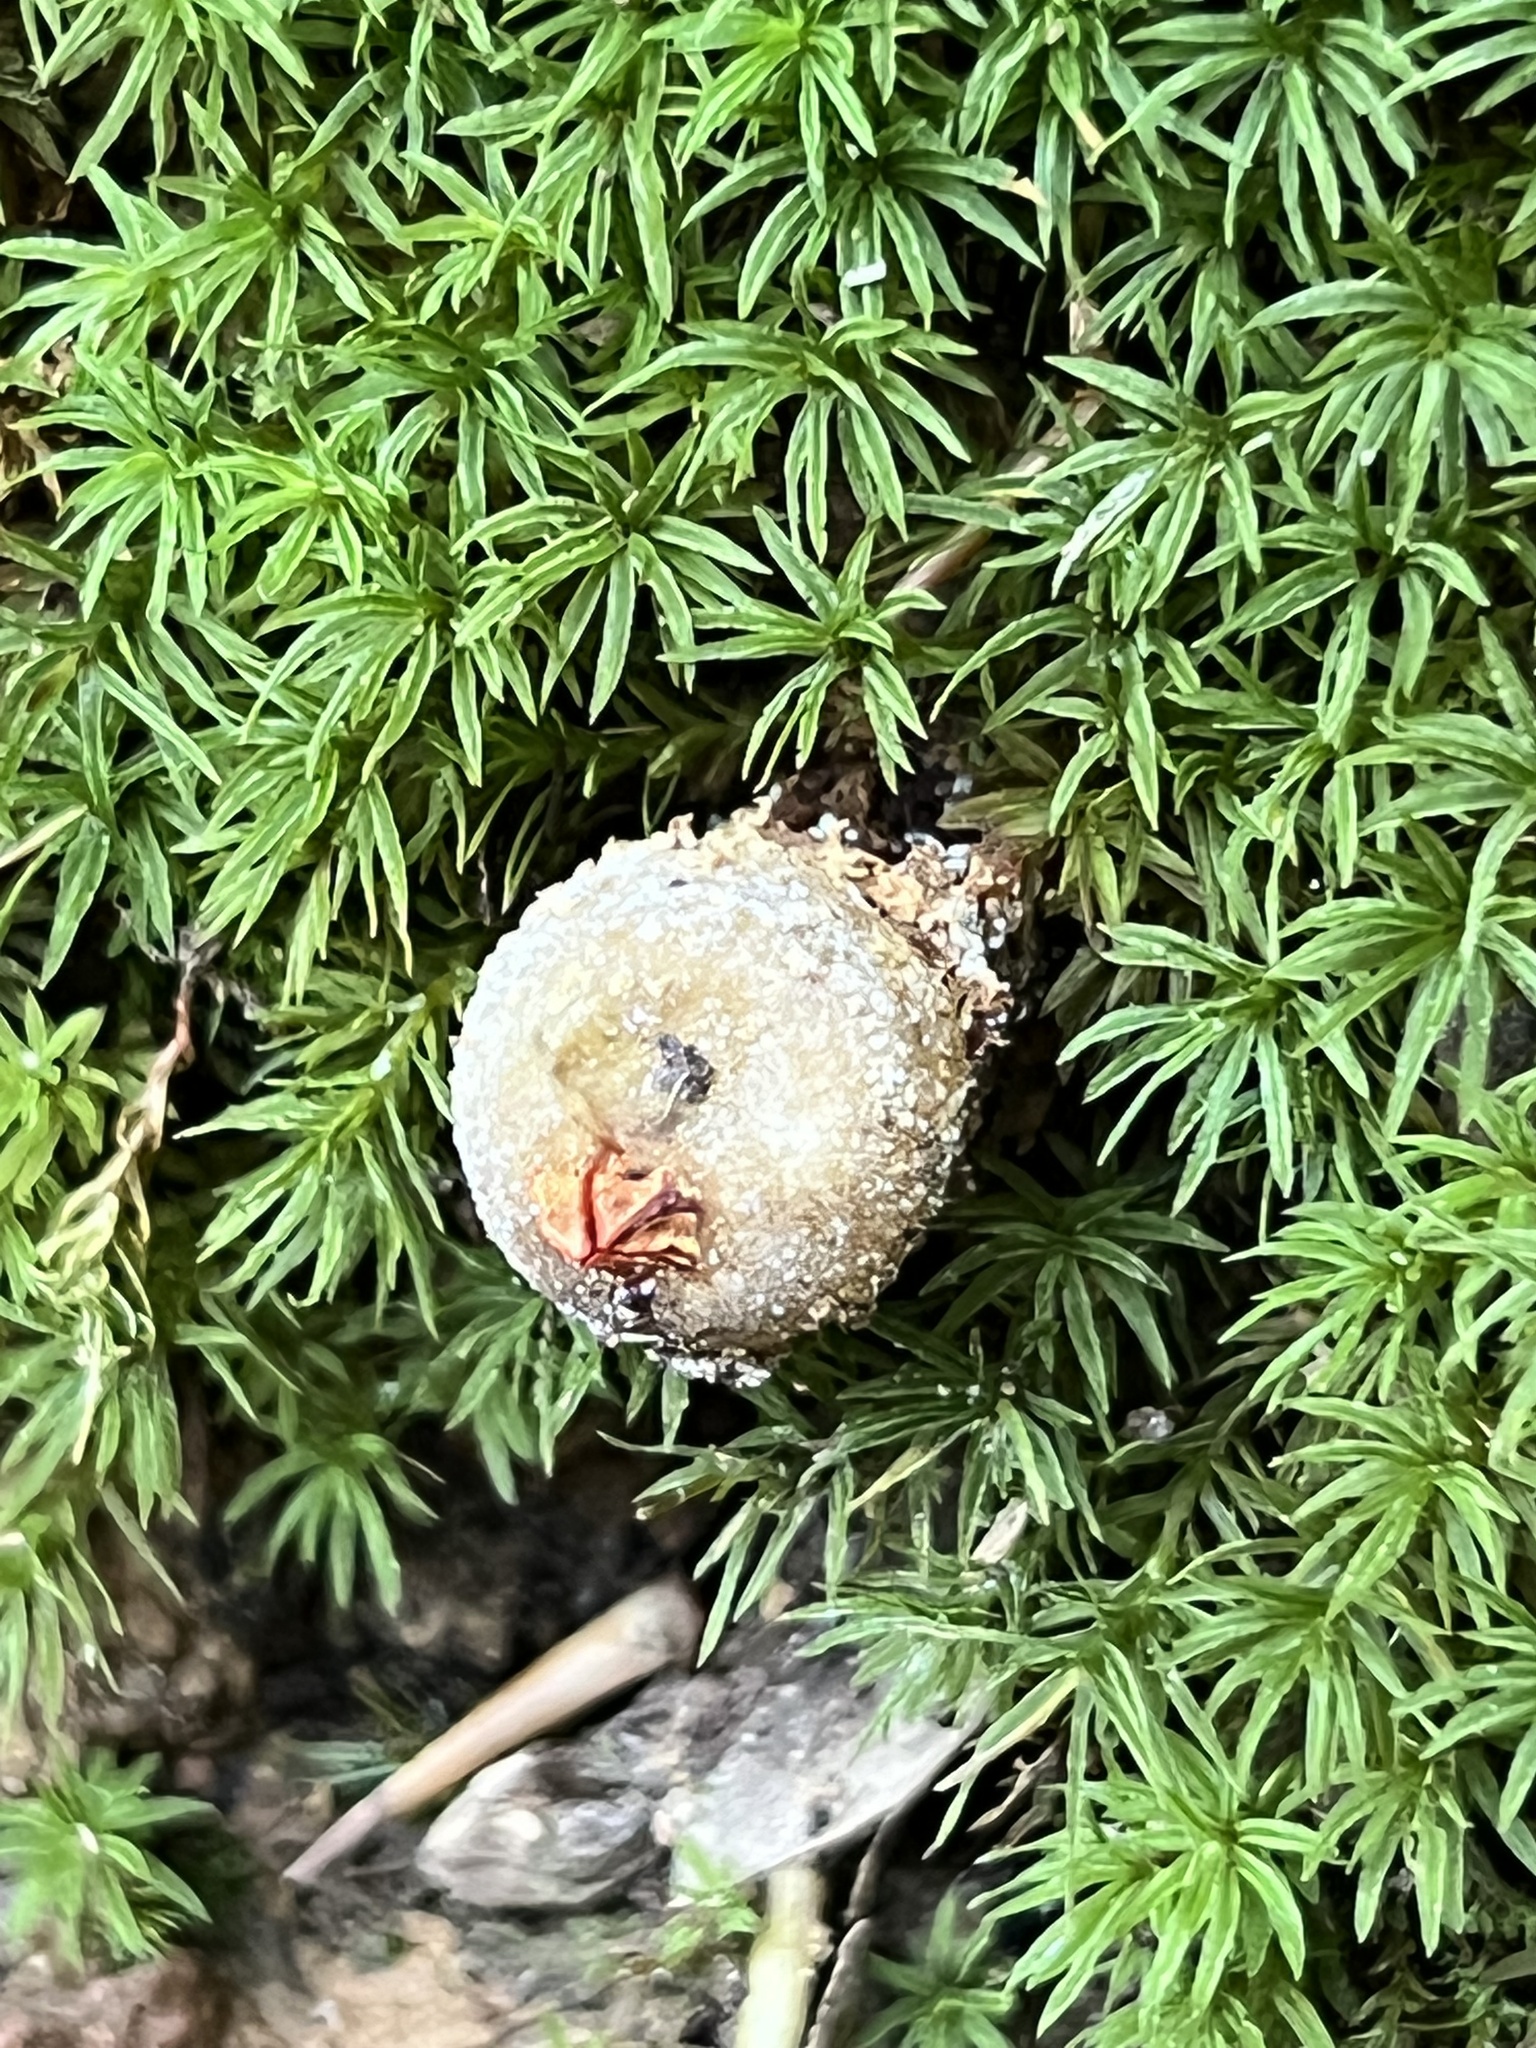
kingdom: Fungi
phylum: Basidiomycota
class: Agaricomycetes
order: Boletales
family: Calostomataceae
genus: Calostoma
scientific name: Calostoma ravenelii
